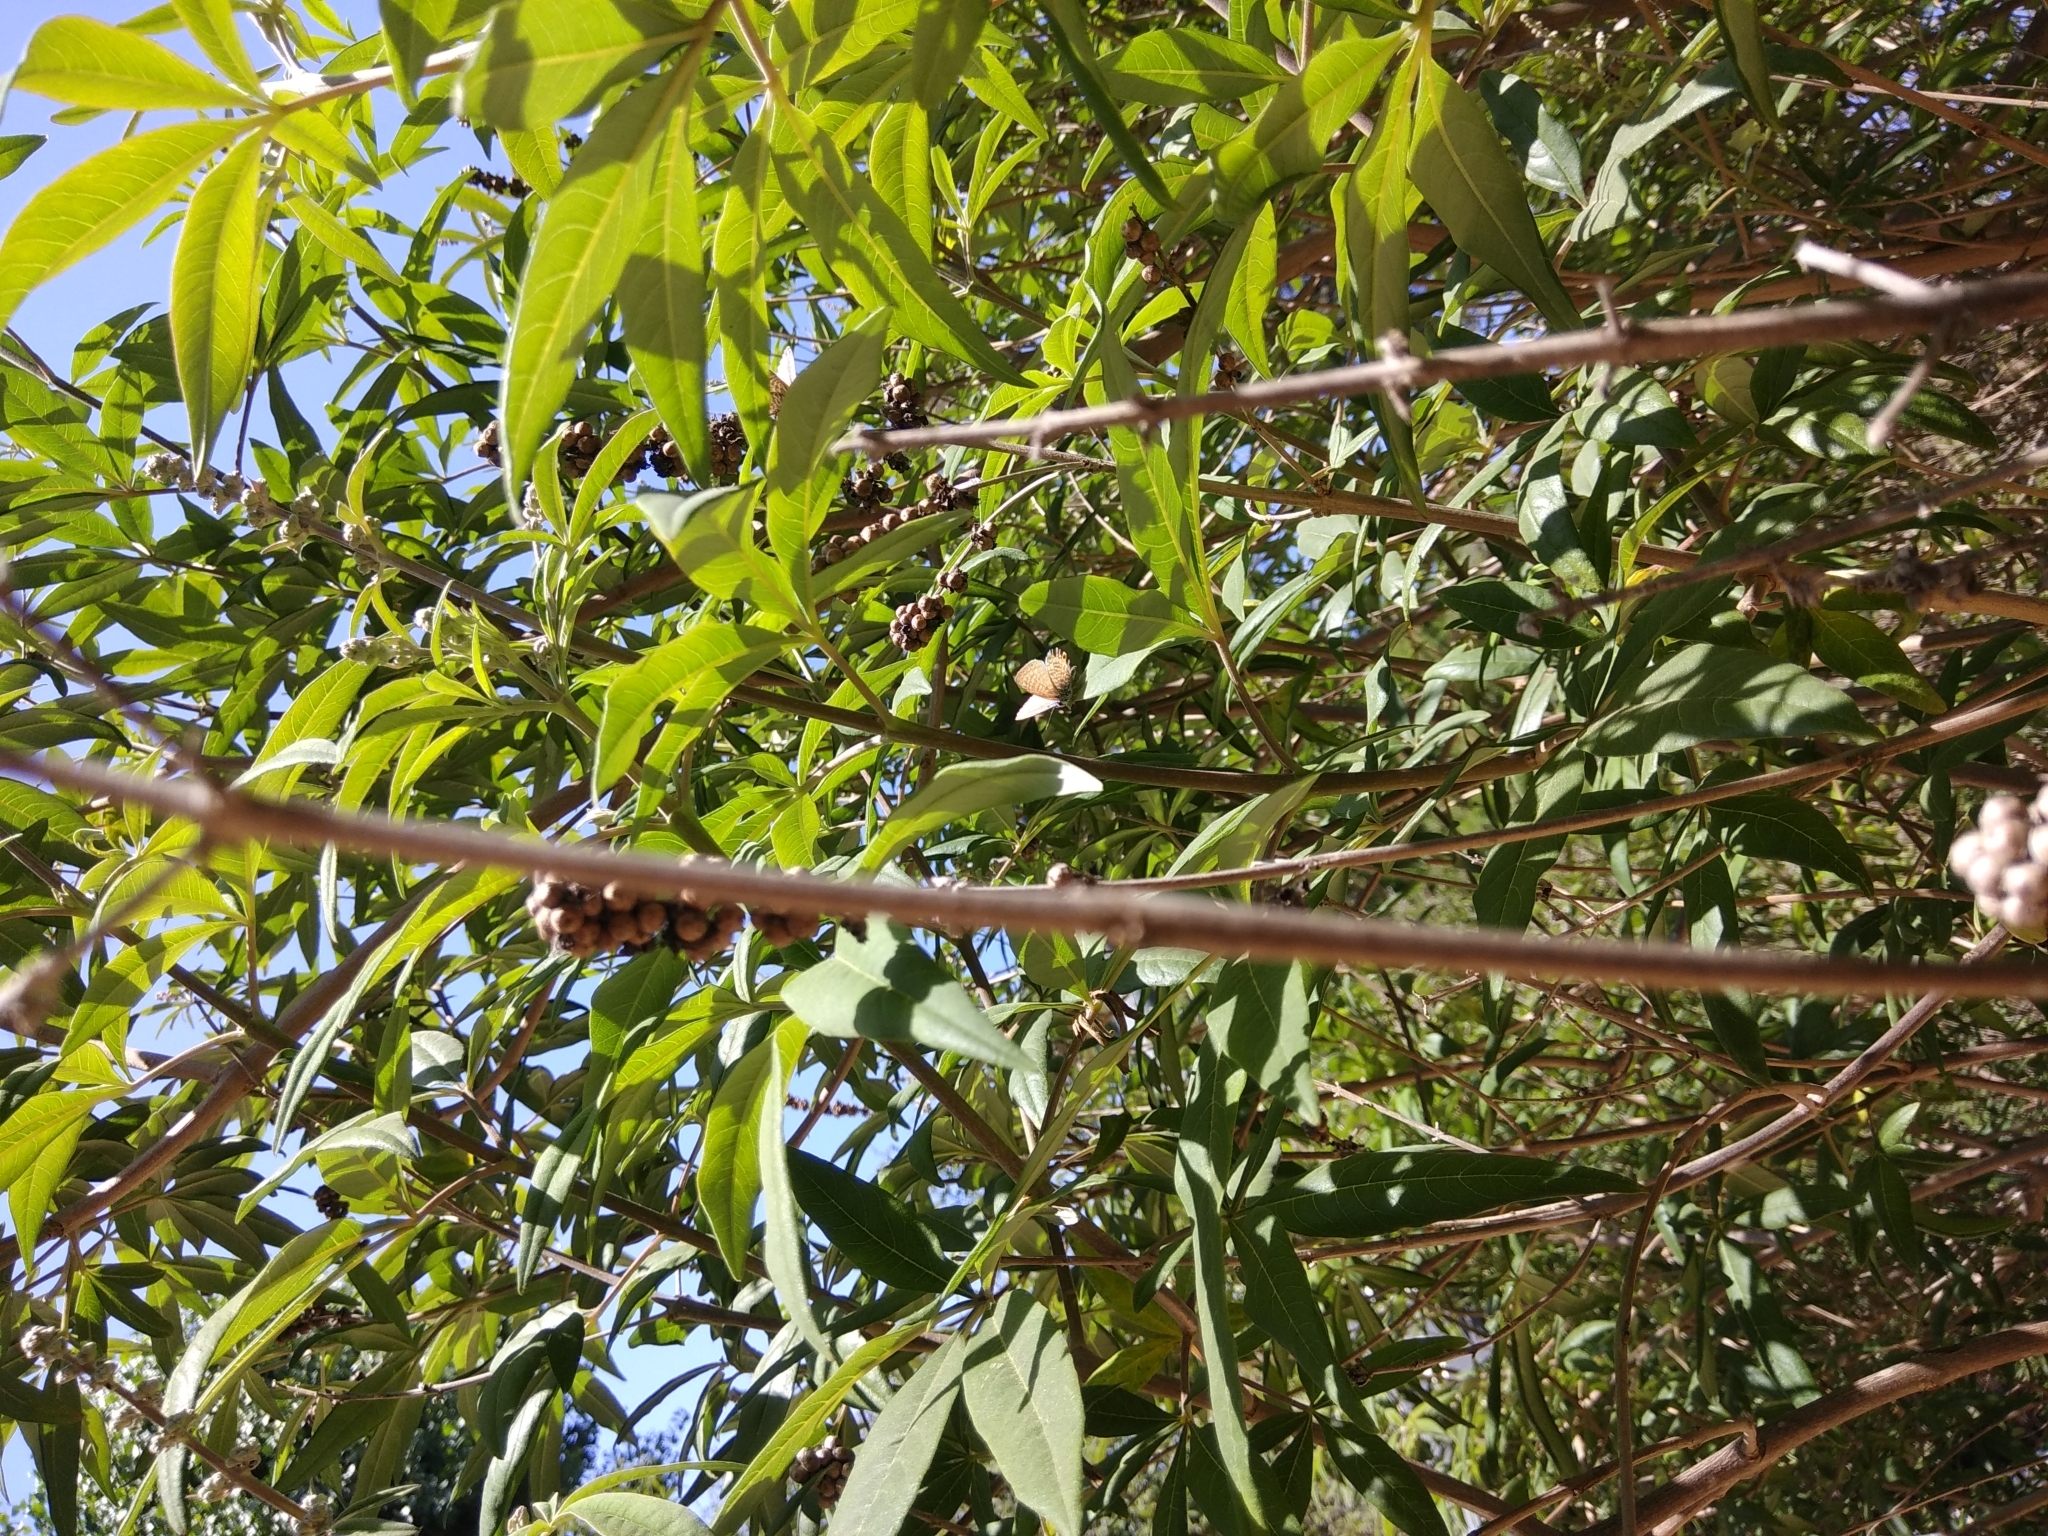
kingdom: Animalia
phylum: Arthropoda
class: Insecta
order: Lepidoptera
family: Lycaenidae
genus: Leptotes
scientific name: Leptotes marina
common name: Marine blue
